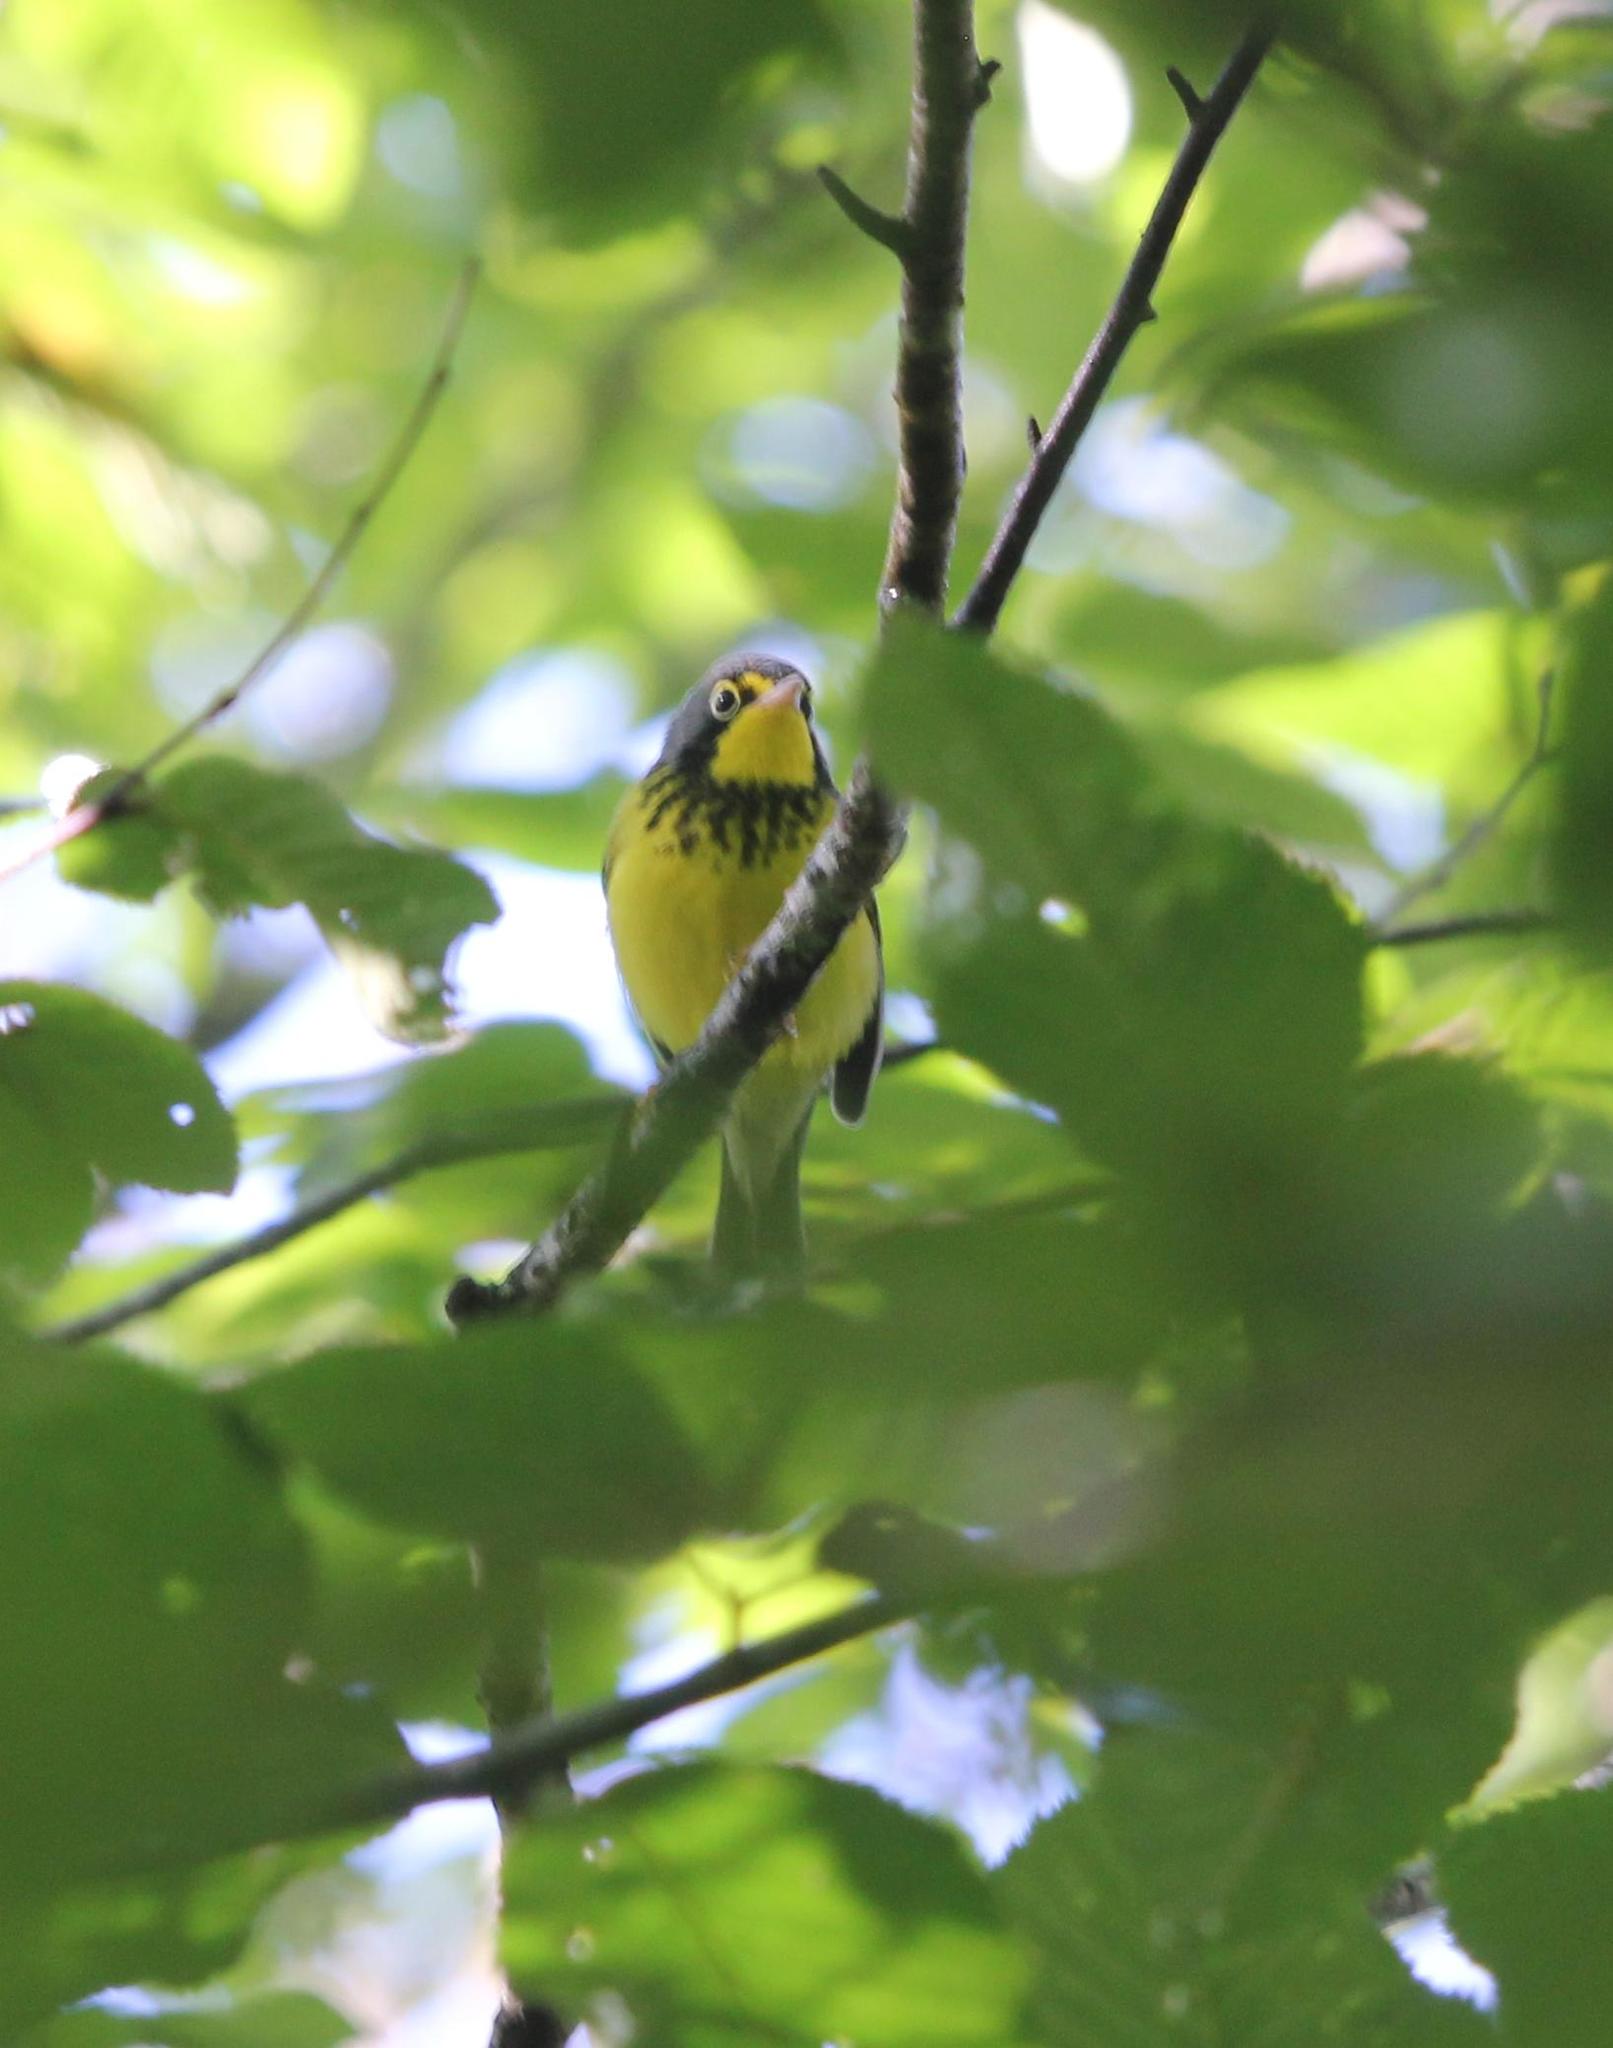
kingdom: Animalia
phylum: Chordata
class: Aves
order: Passeriformes
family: Parulidae
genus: Cardellina
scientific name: Cardellina canadensis
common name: Canada warbler
